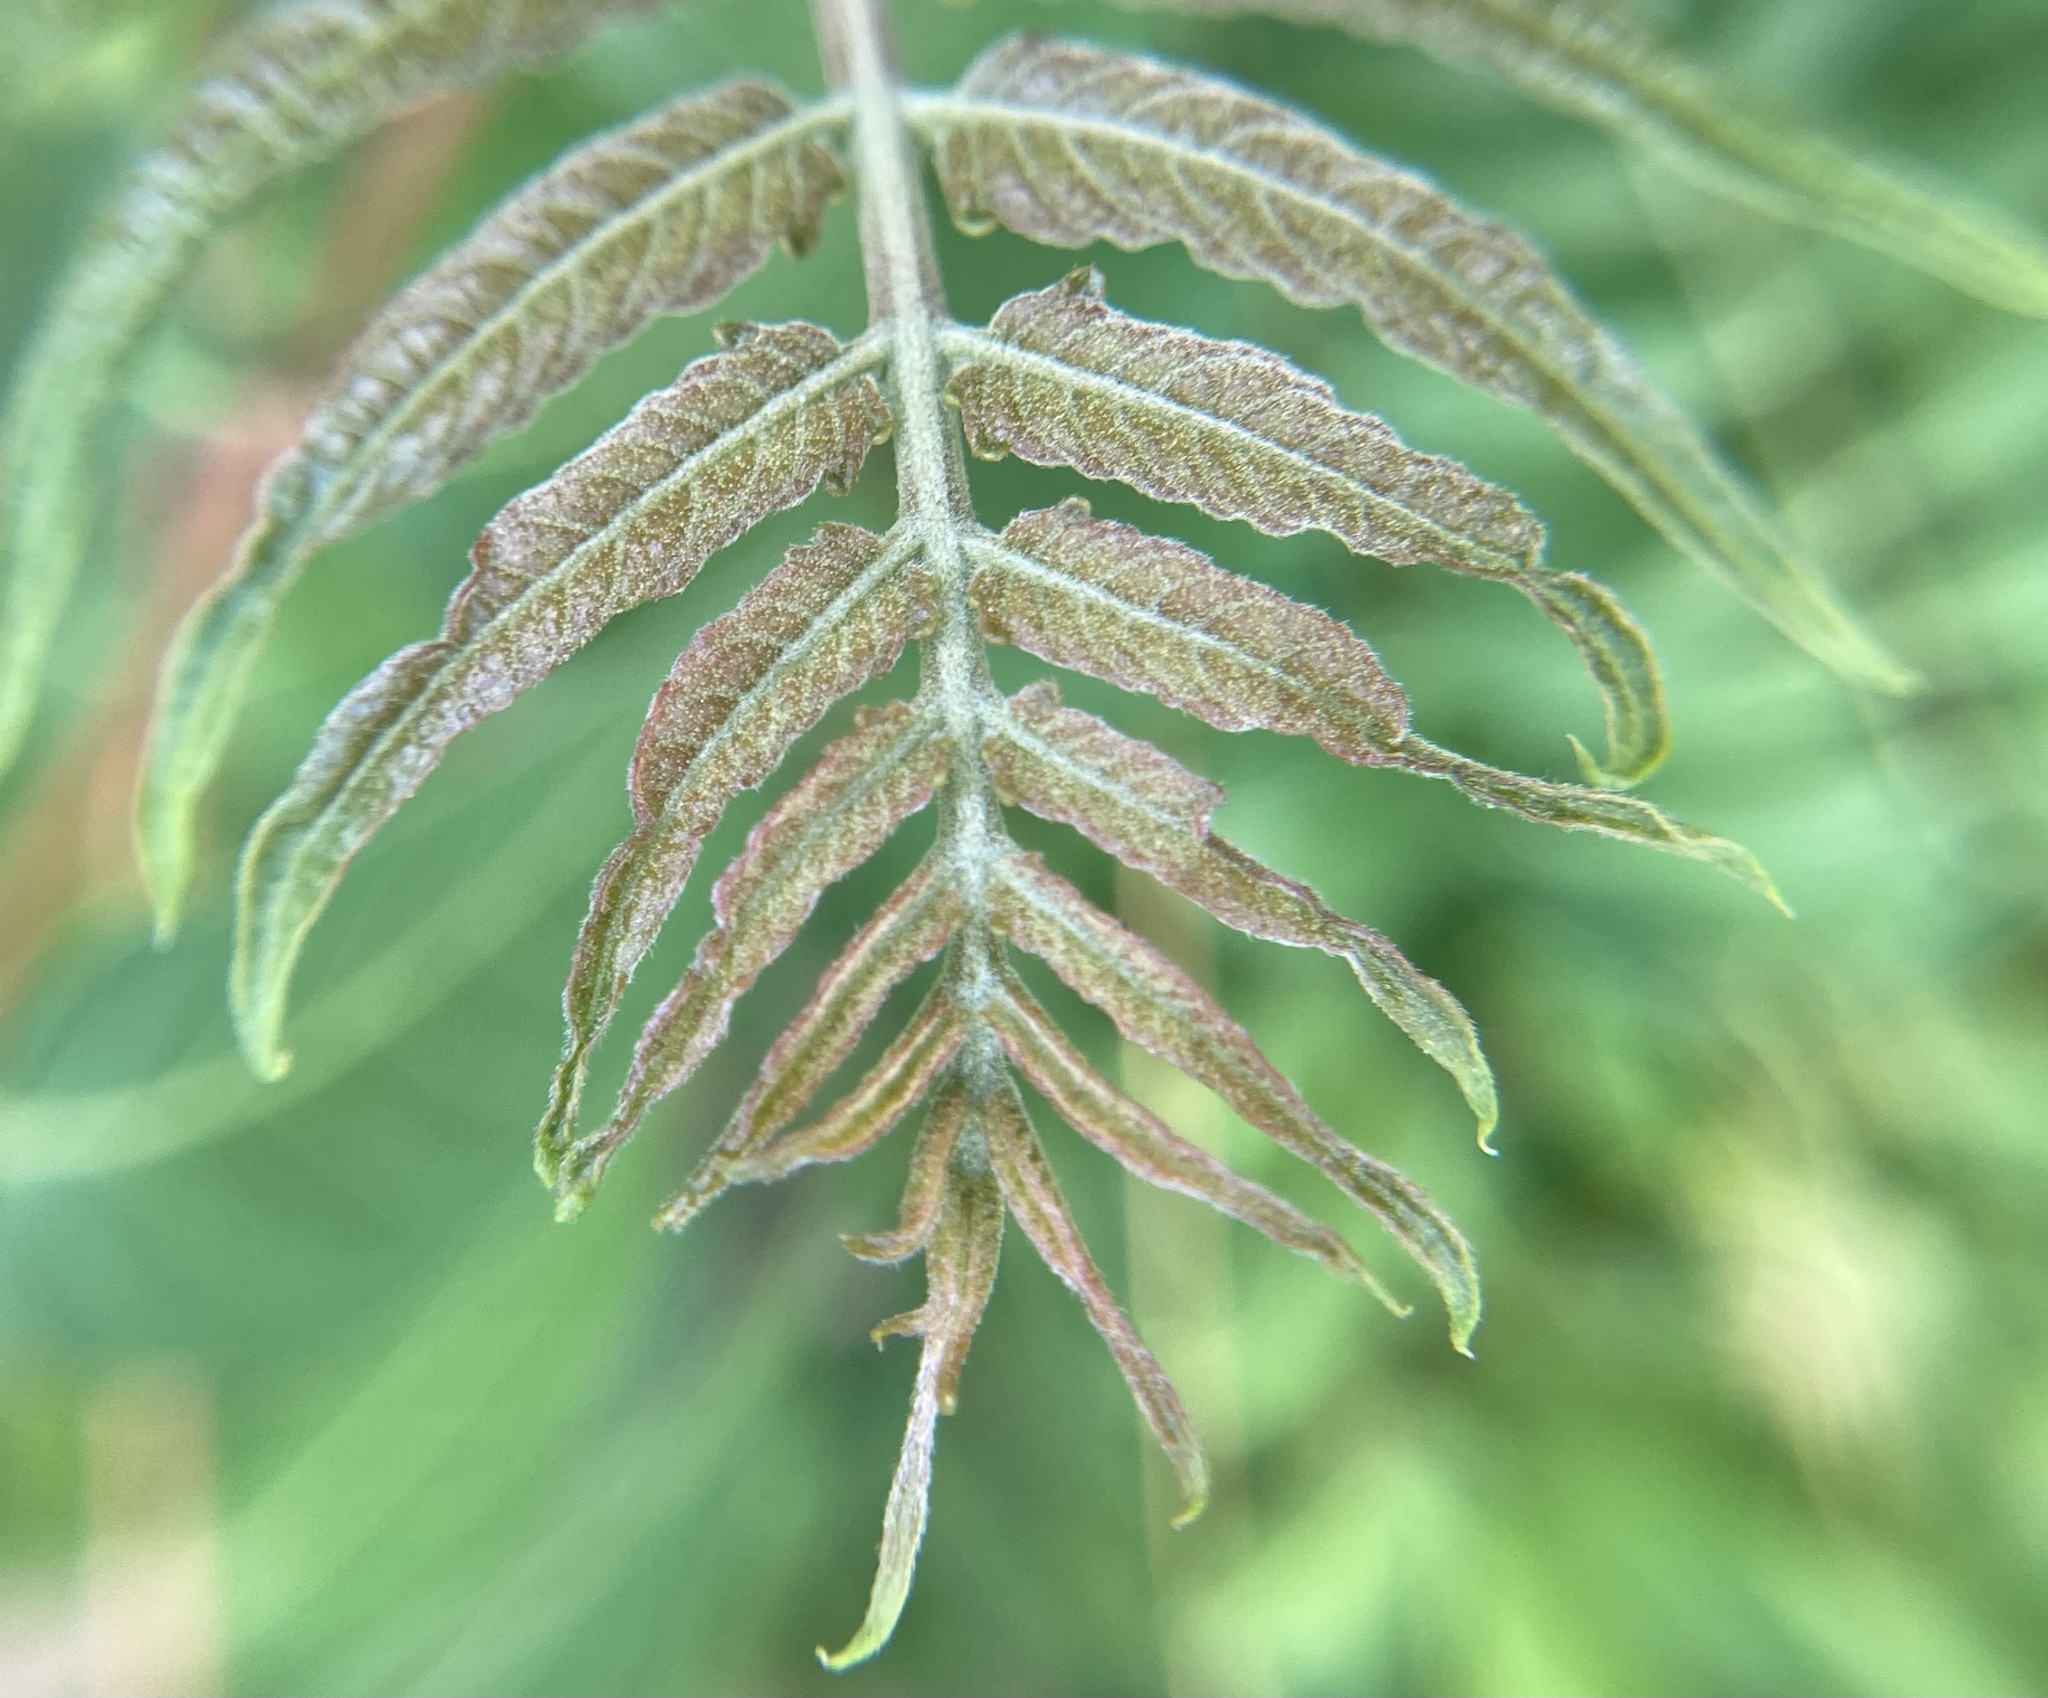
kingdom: Plantae
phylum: Tracheophyta
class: Magnoliopsida
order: Sapindales
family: Anacardiaceae
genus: Rhus
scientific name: Rhus typhina
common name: Staghorn sumac
